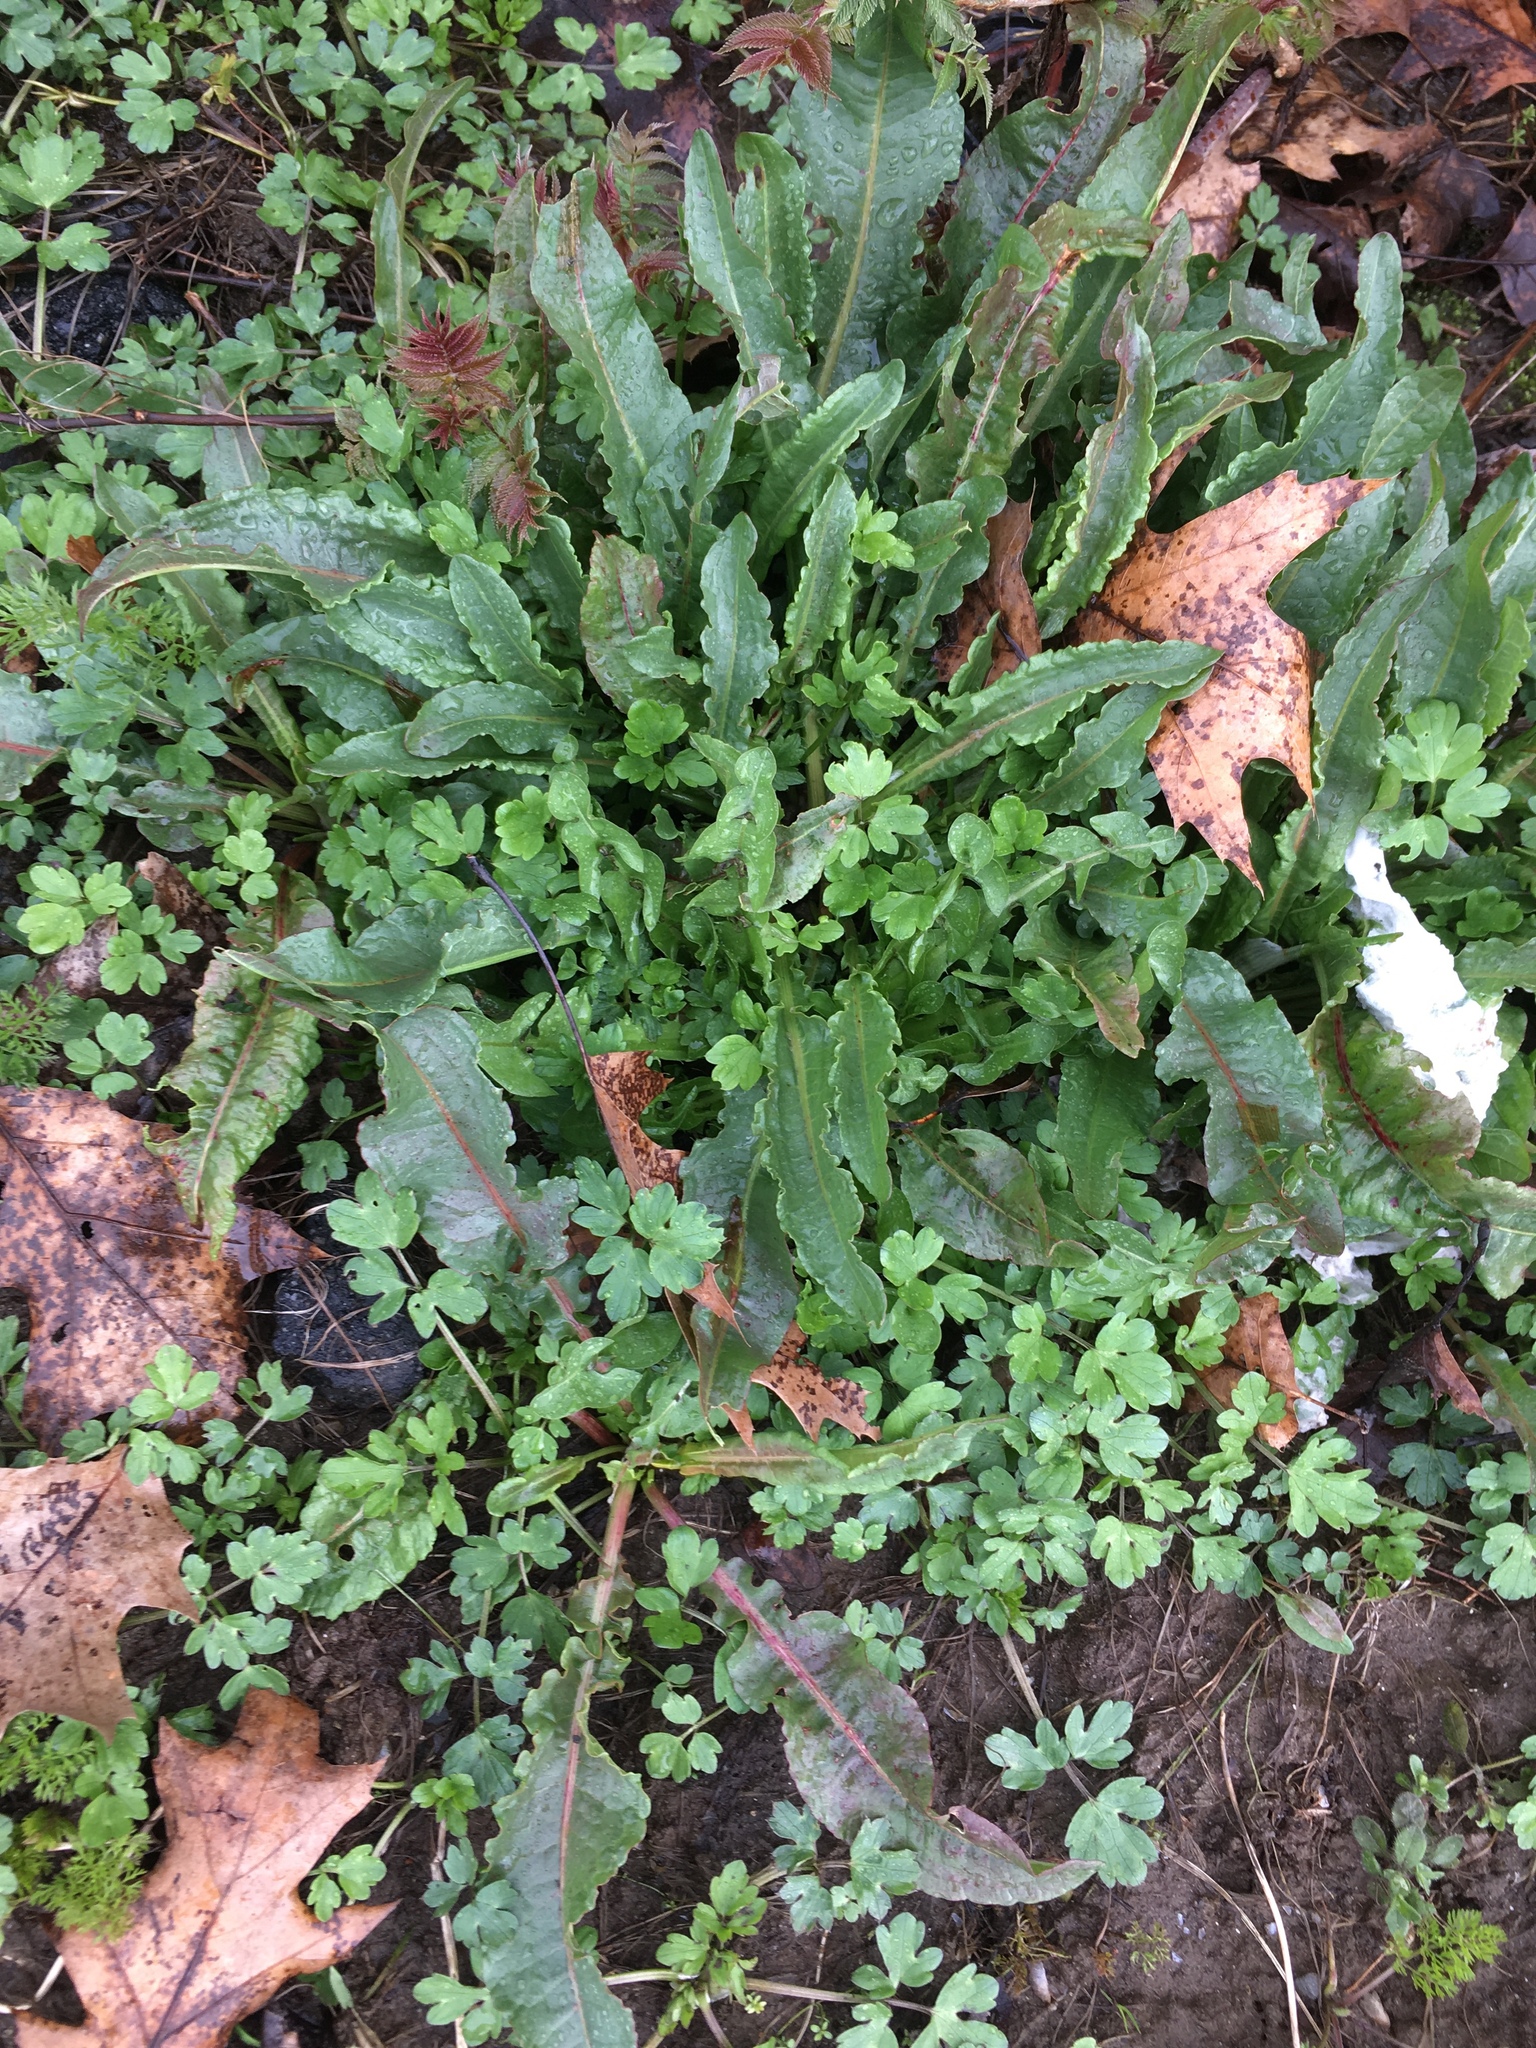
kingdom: Plantae
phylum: Tracheophyta
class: Magnoliopsida
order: Caryophyllales
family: Polygonaceae
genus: Rumex
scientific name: Rumex crispus
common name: Curled dock
